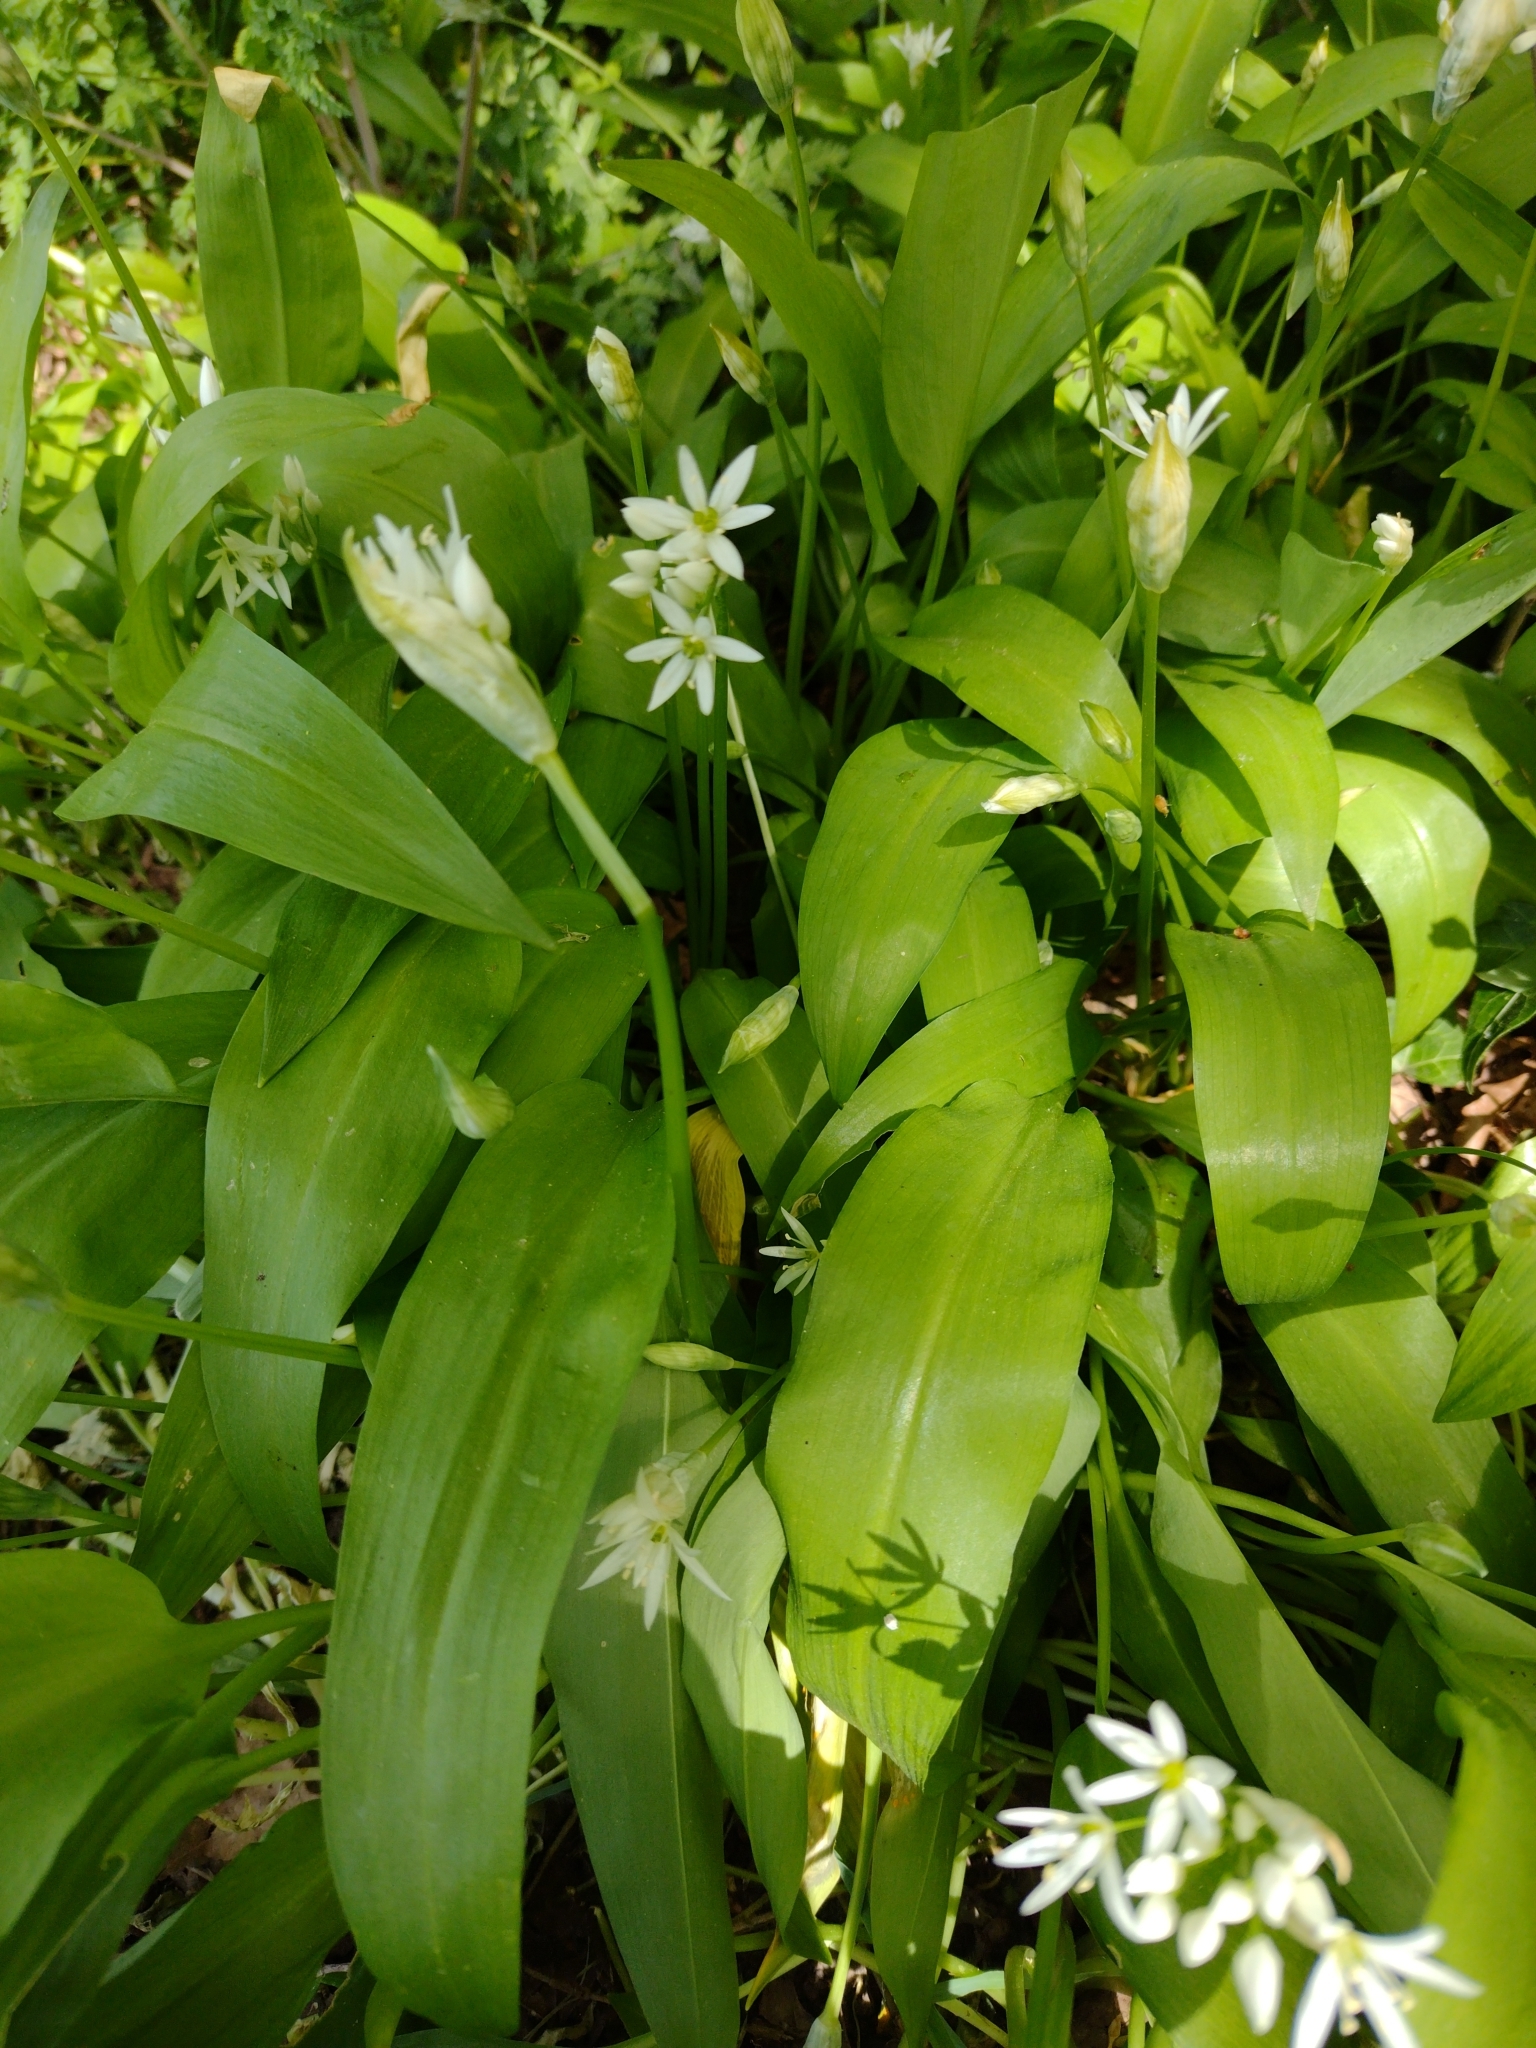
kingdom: Plantae
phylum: Tracheophyta
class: Liliopsida
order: Asparagales
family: Amaryllidaceae
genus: Allium
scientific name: Allium ursinum
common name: Ramsons
